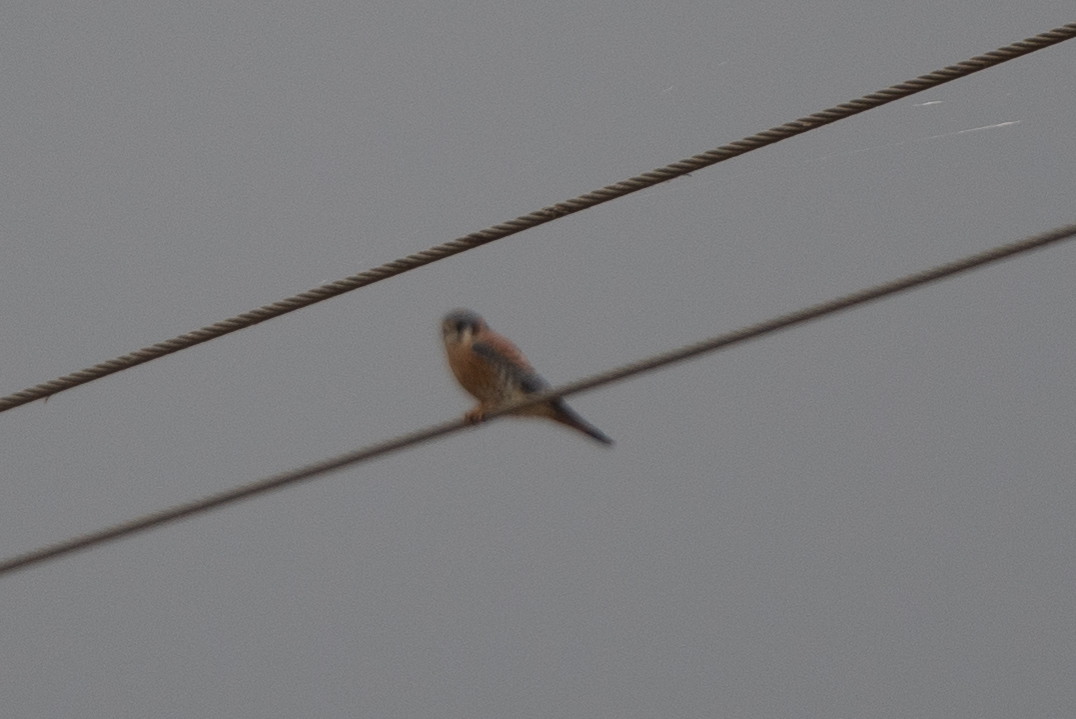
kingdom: Animalia
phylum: Chordata
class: Aves
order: Falconiformes
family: Falconidae
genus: Falco
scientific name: Falco sparverius
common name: American kestrel
